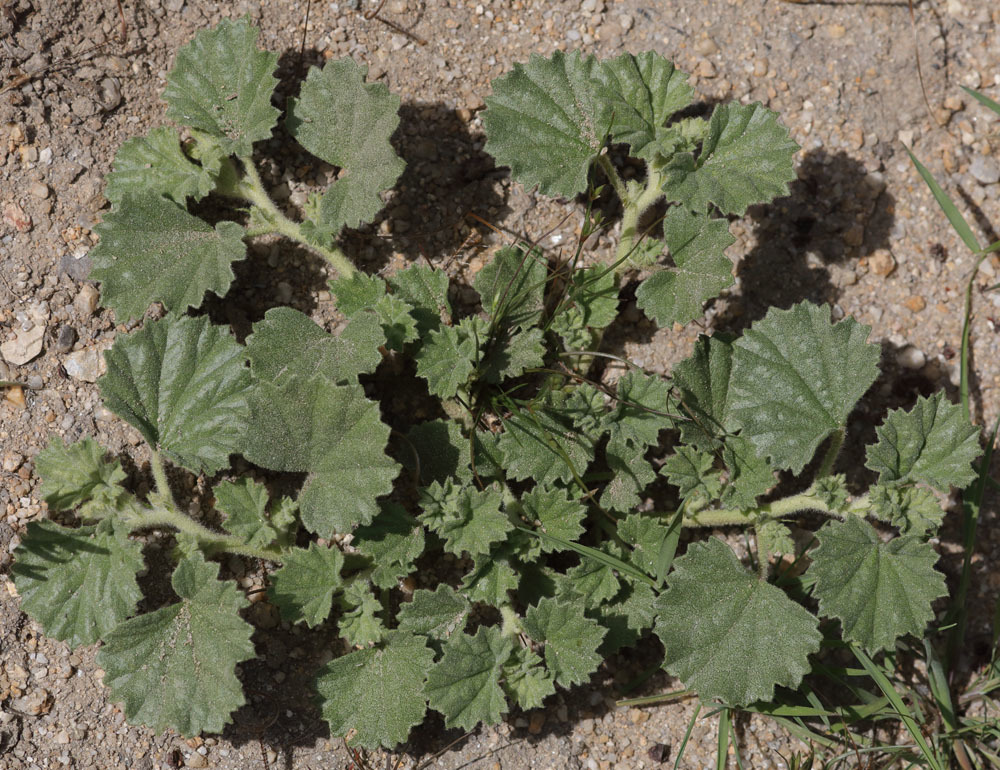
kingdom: Plantae
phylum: Tracheophyta
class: Magnoliopsida
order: Malvales
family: Malvaceae
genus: Malvella
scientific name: Malvella leprosa
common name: Alkali-mallow
